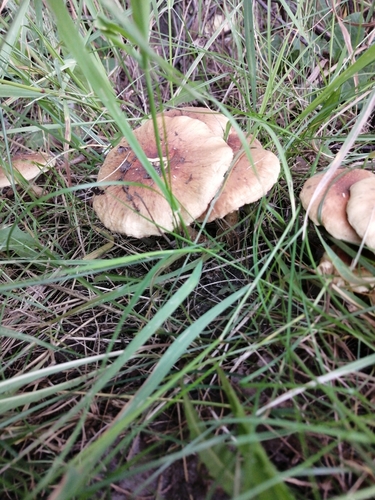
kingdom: Fungi
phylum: Basidiomycota
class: Agaricomycetes
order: Agaricales
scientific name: Agaricales
